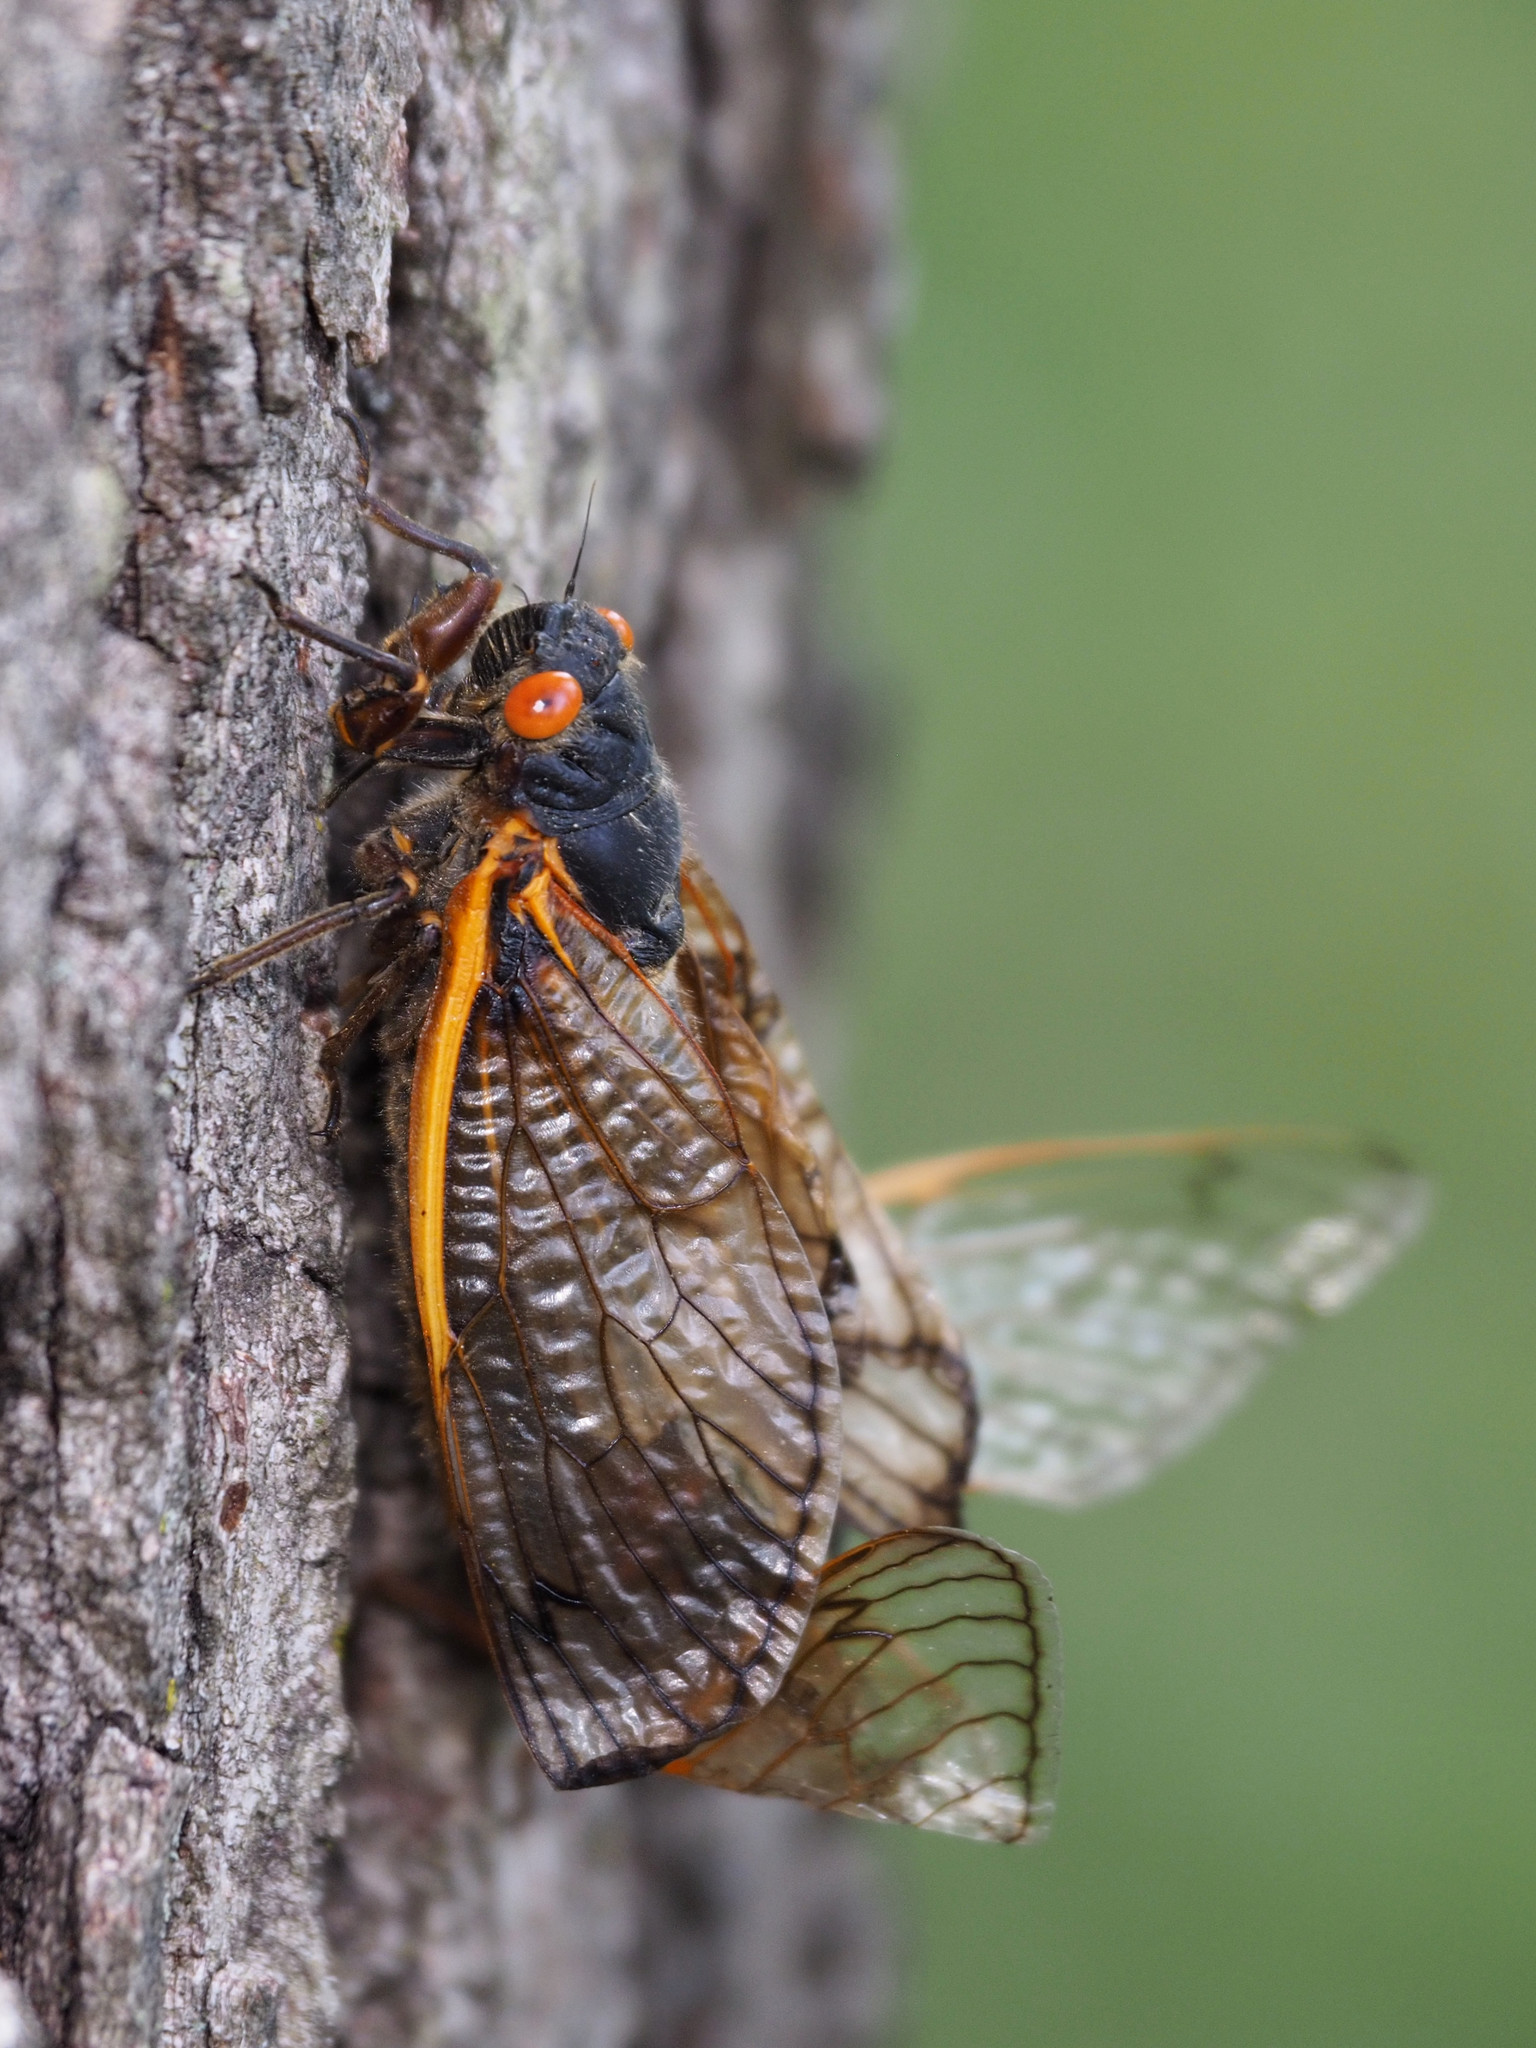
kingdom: Animalia
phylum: Arthropoda
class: Insecta
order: Hemiptera
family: Cicadidae
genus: Magicicada
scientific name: Magicicada septendecim
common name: Periodical cicada
